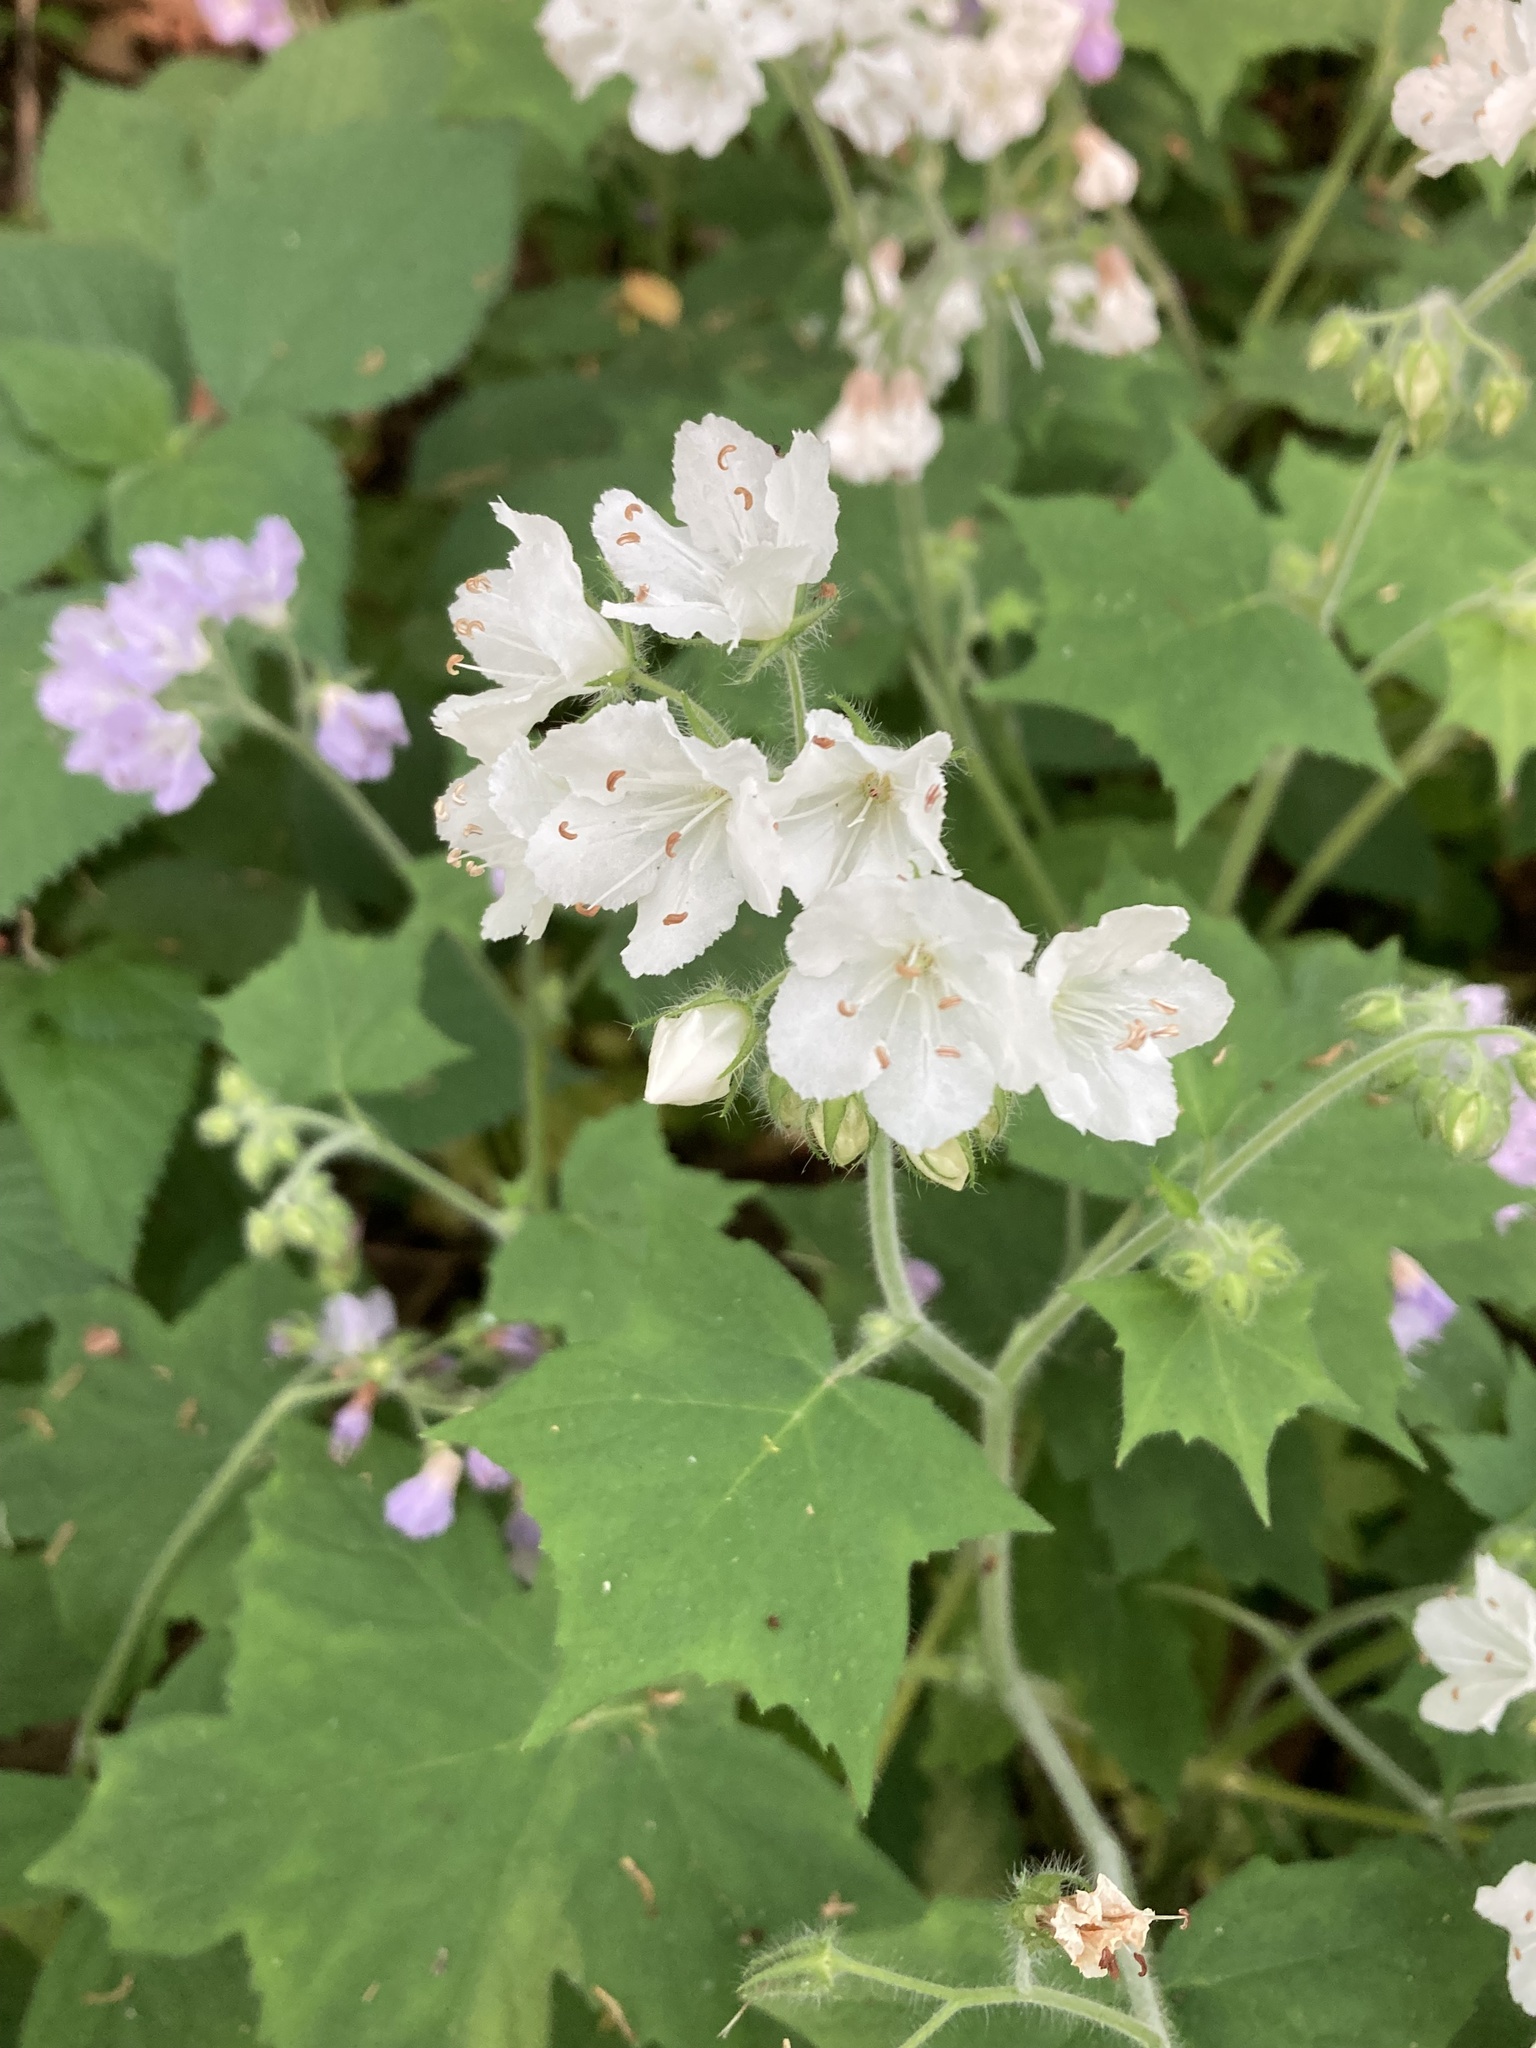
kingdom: Plantae
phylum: Tracheophyta
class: Magnoliopsida
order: Boraginales
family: Hydrophyllaceae
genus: Hydrophyllum
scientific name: Hydrophyllum appendiculatum
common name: Appendaged waterleaf
